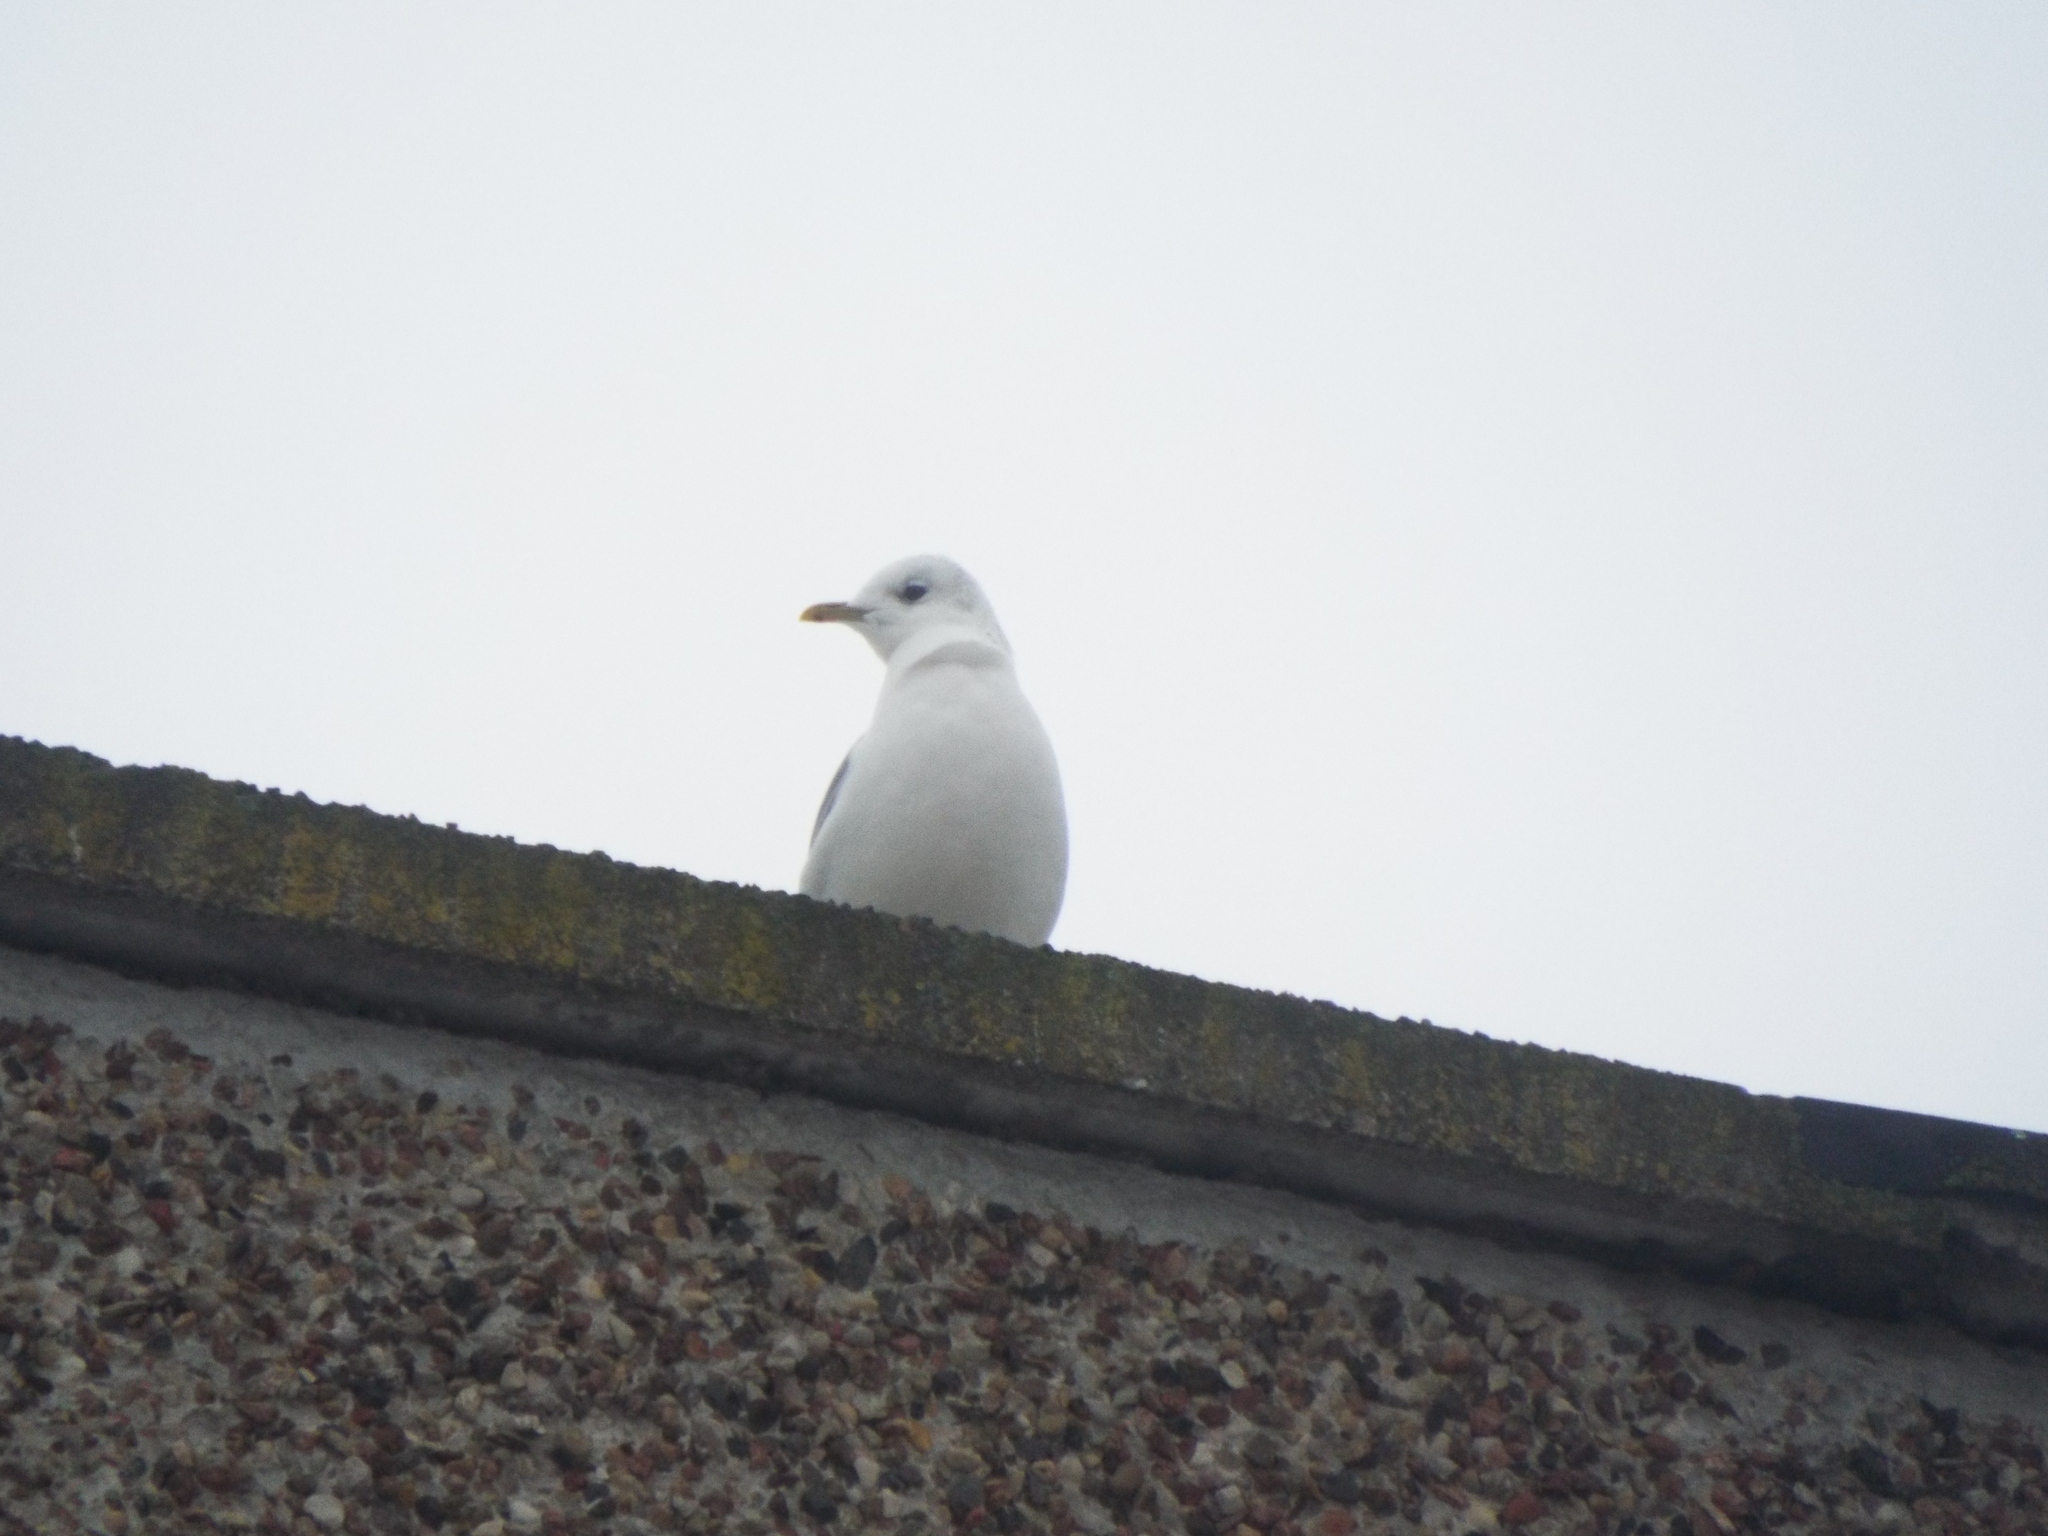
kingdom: Animalia
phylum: Chordata
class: Aves
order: Charadriiformes
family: Laridae
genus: Larus
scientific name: Larus canus
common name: Mew gull
